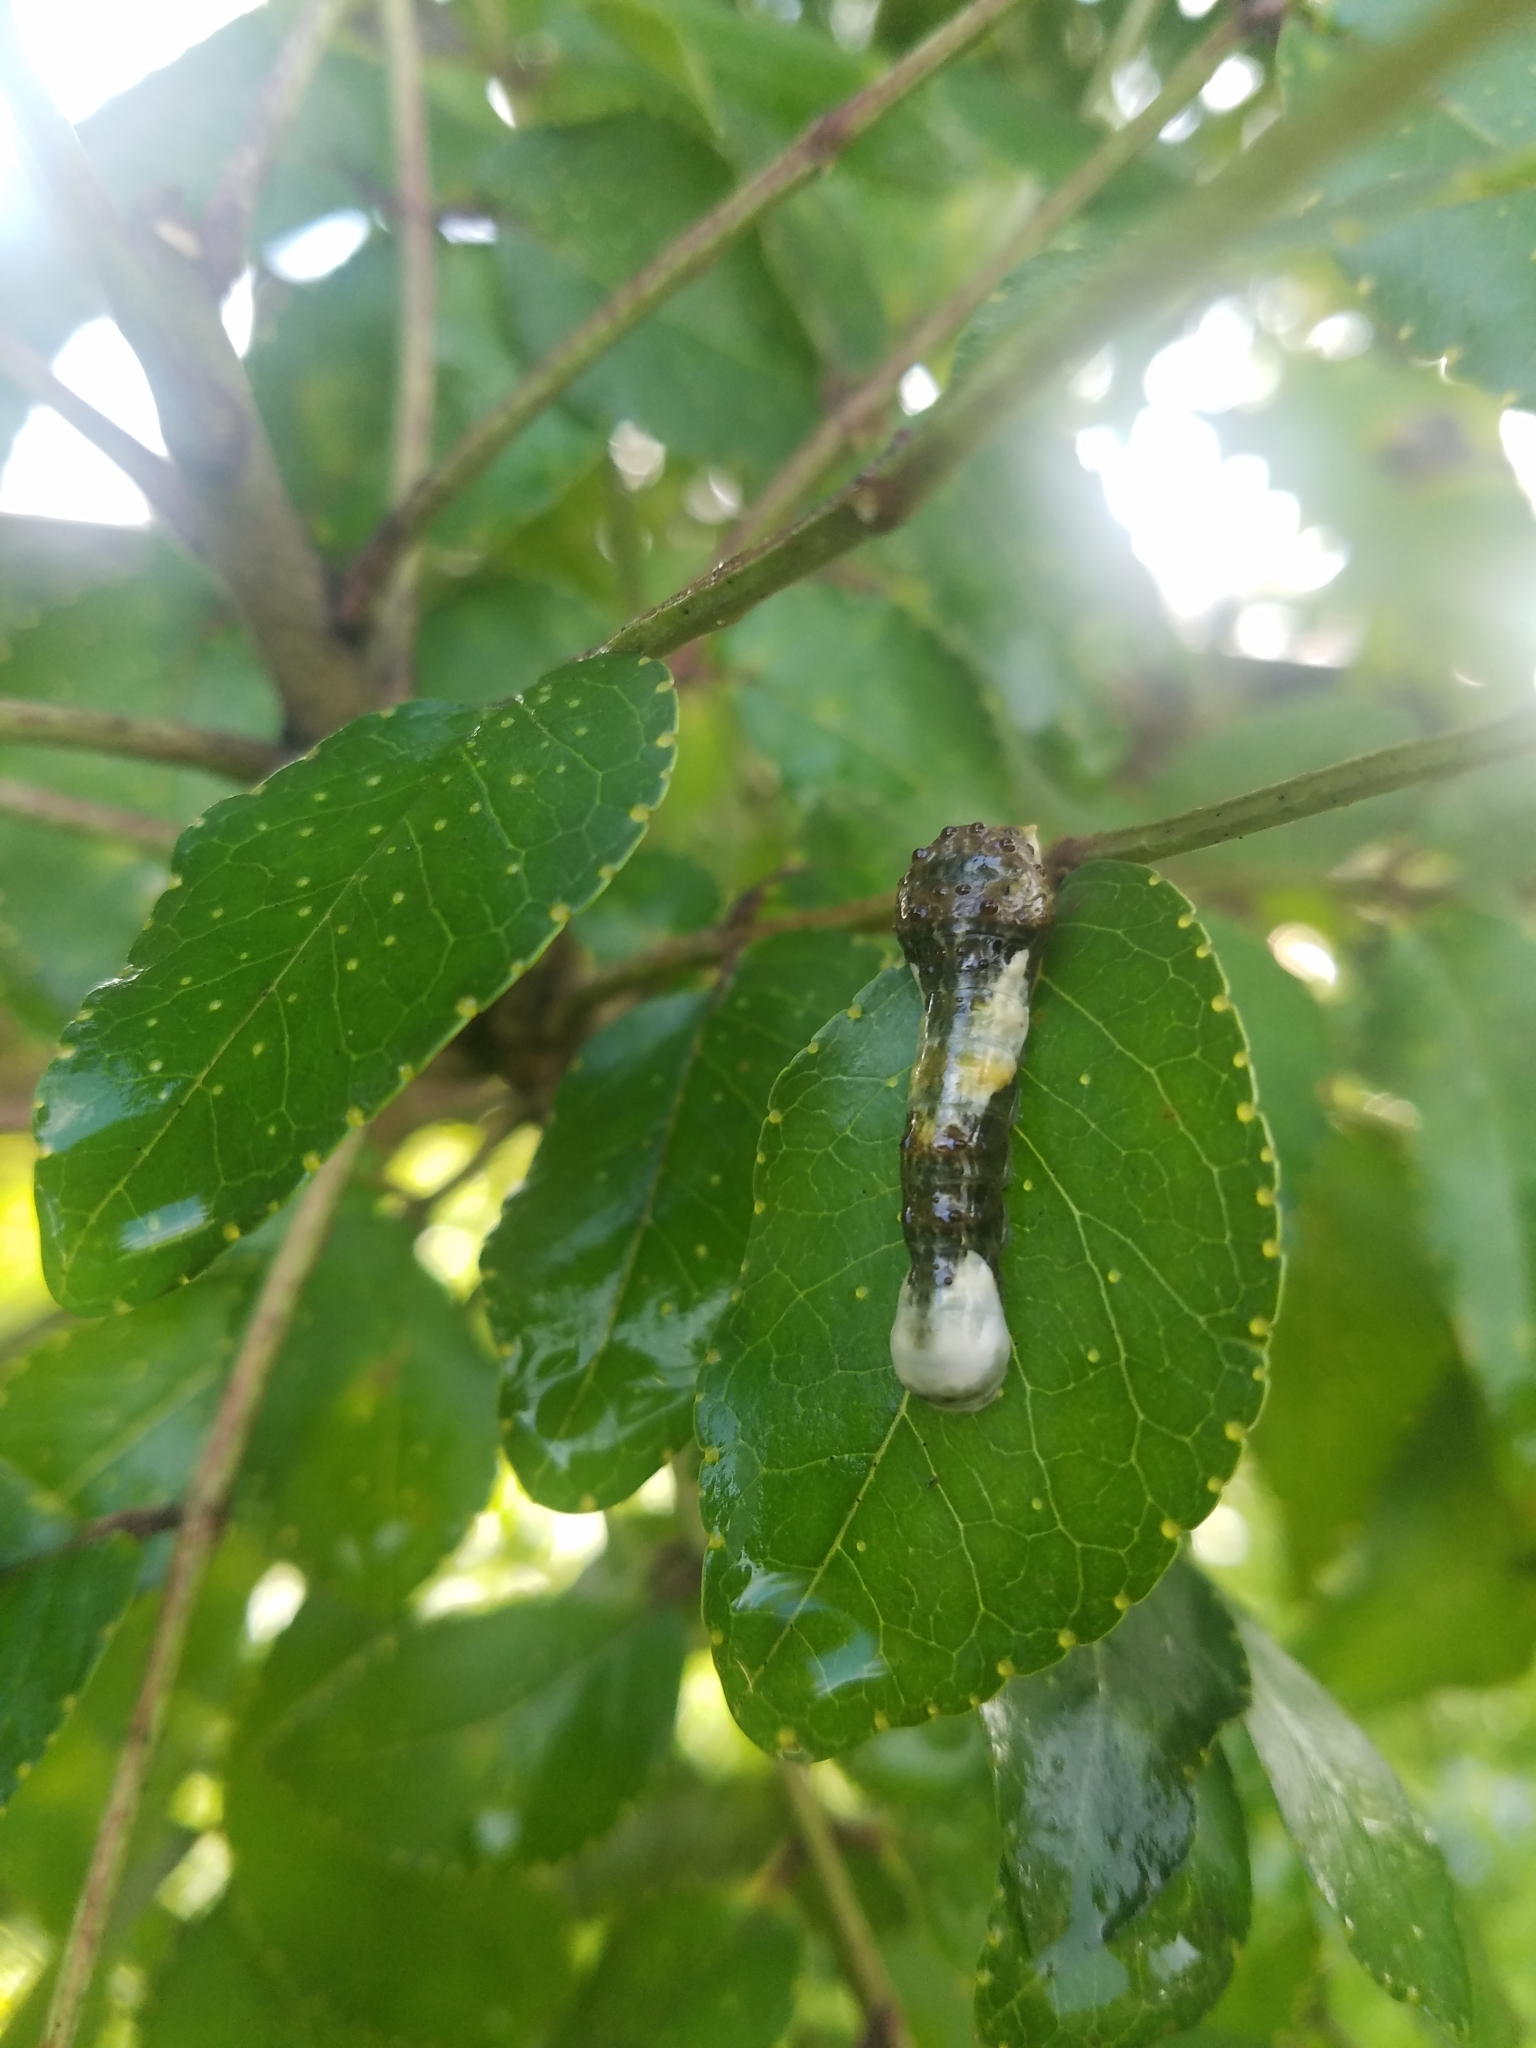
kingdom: Animalia
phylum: Arthropoda
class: Insecta
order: Lepidoptera
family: Papilionidae
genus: Papilio
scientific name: Papilio cresphontes
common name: Giant swallowtail
